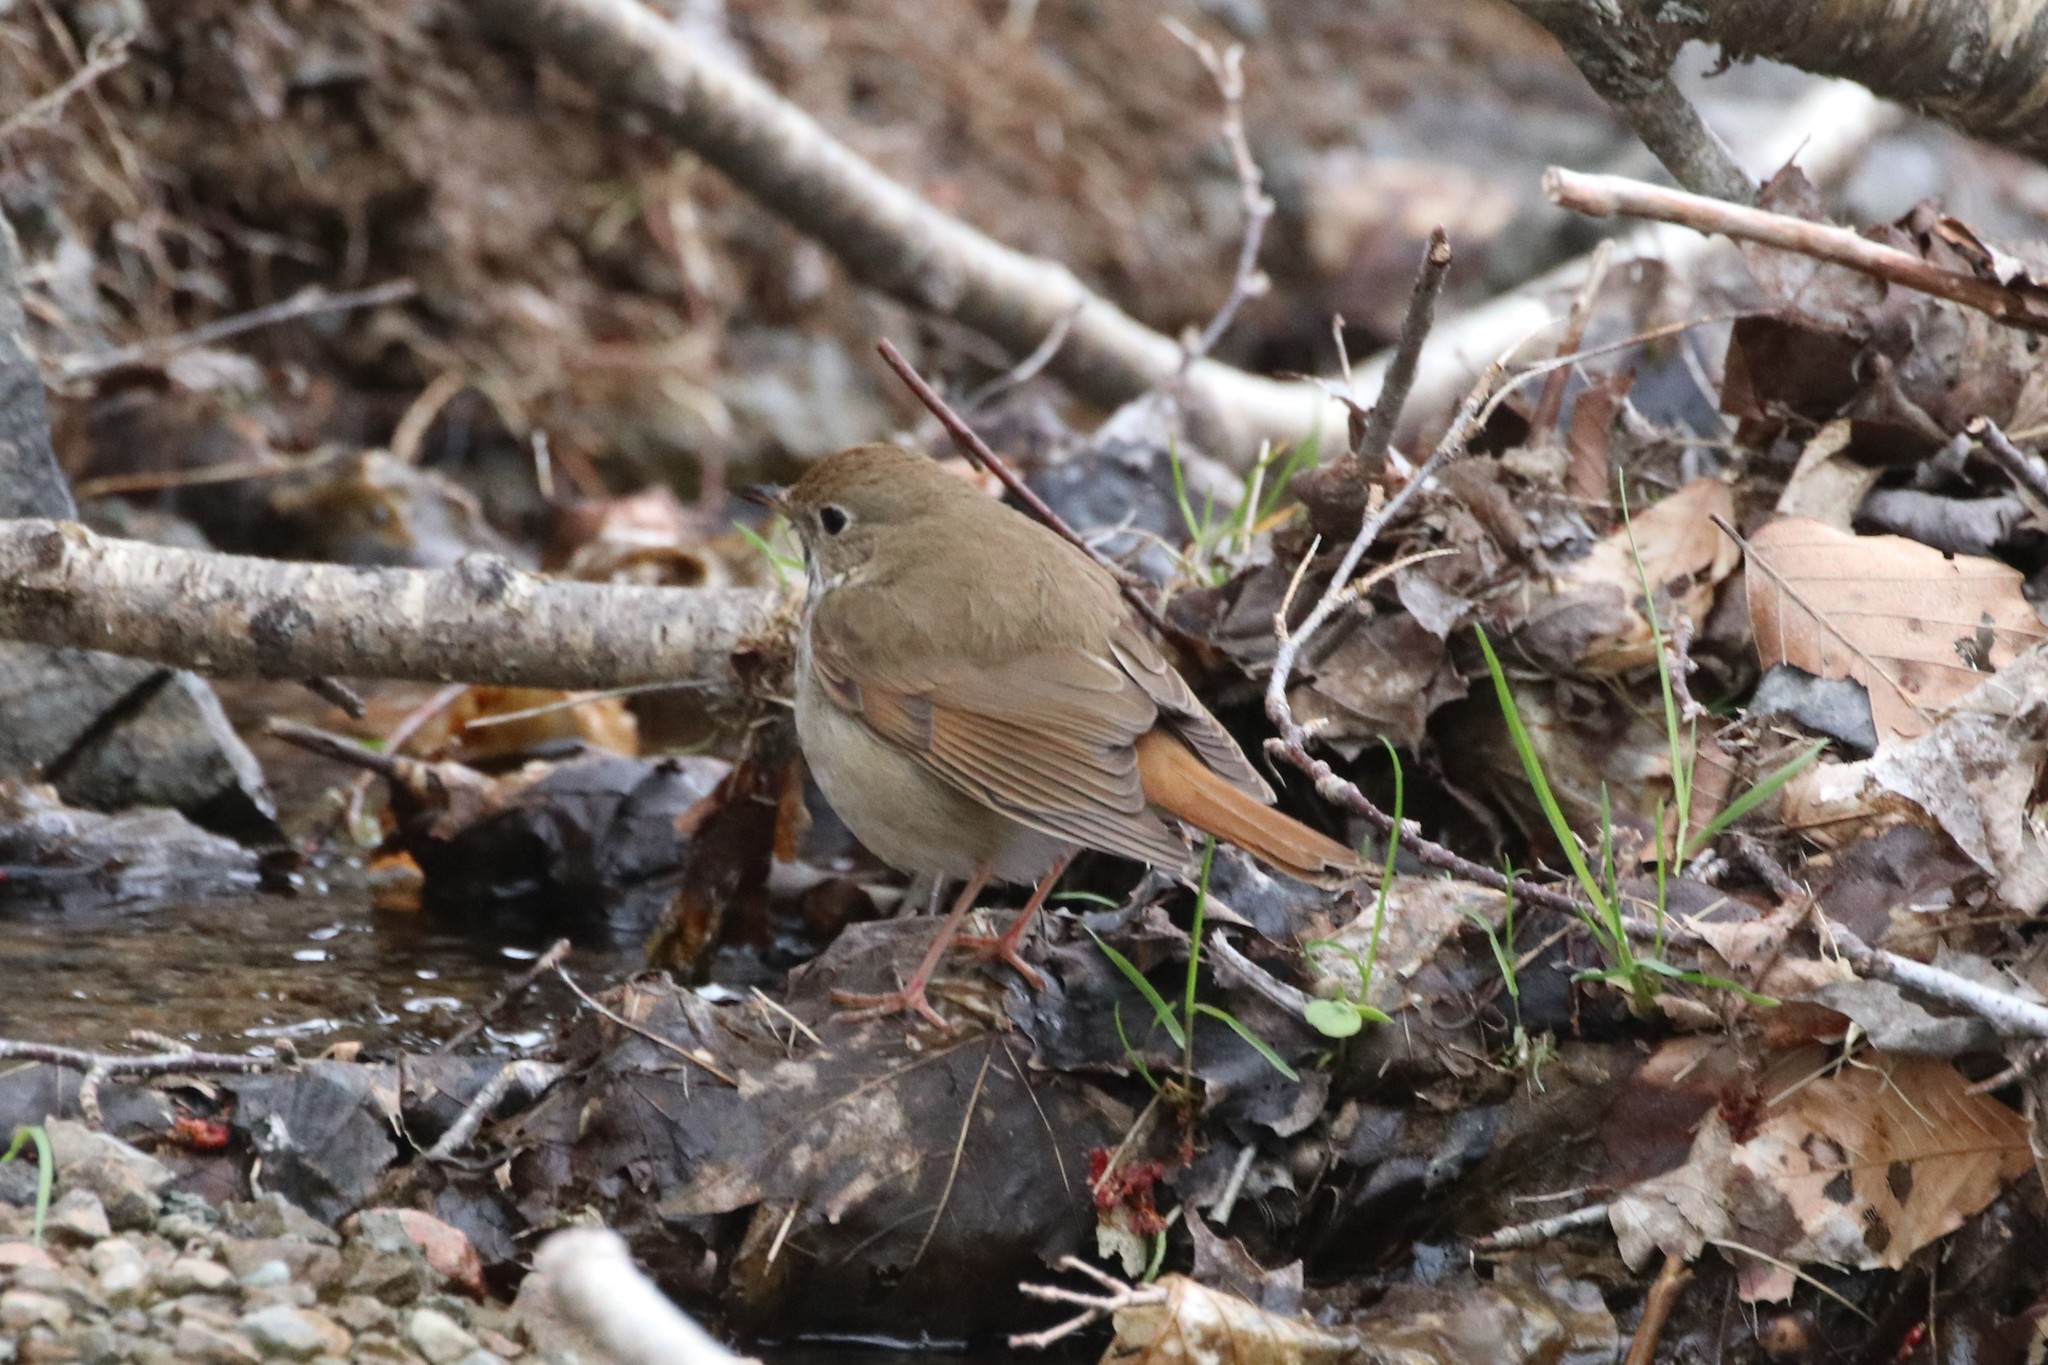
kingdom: Animalia
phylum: Chordata
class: Aves
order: Passeriformes
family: Turdidae
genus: Catharus
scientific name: Catharus guttatus
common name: Hermit thrush
